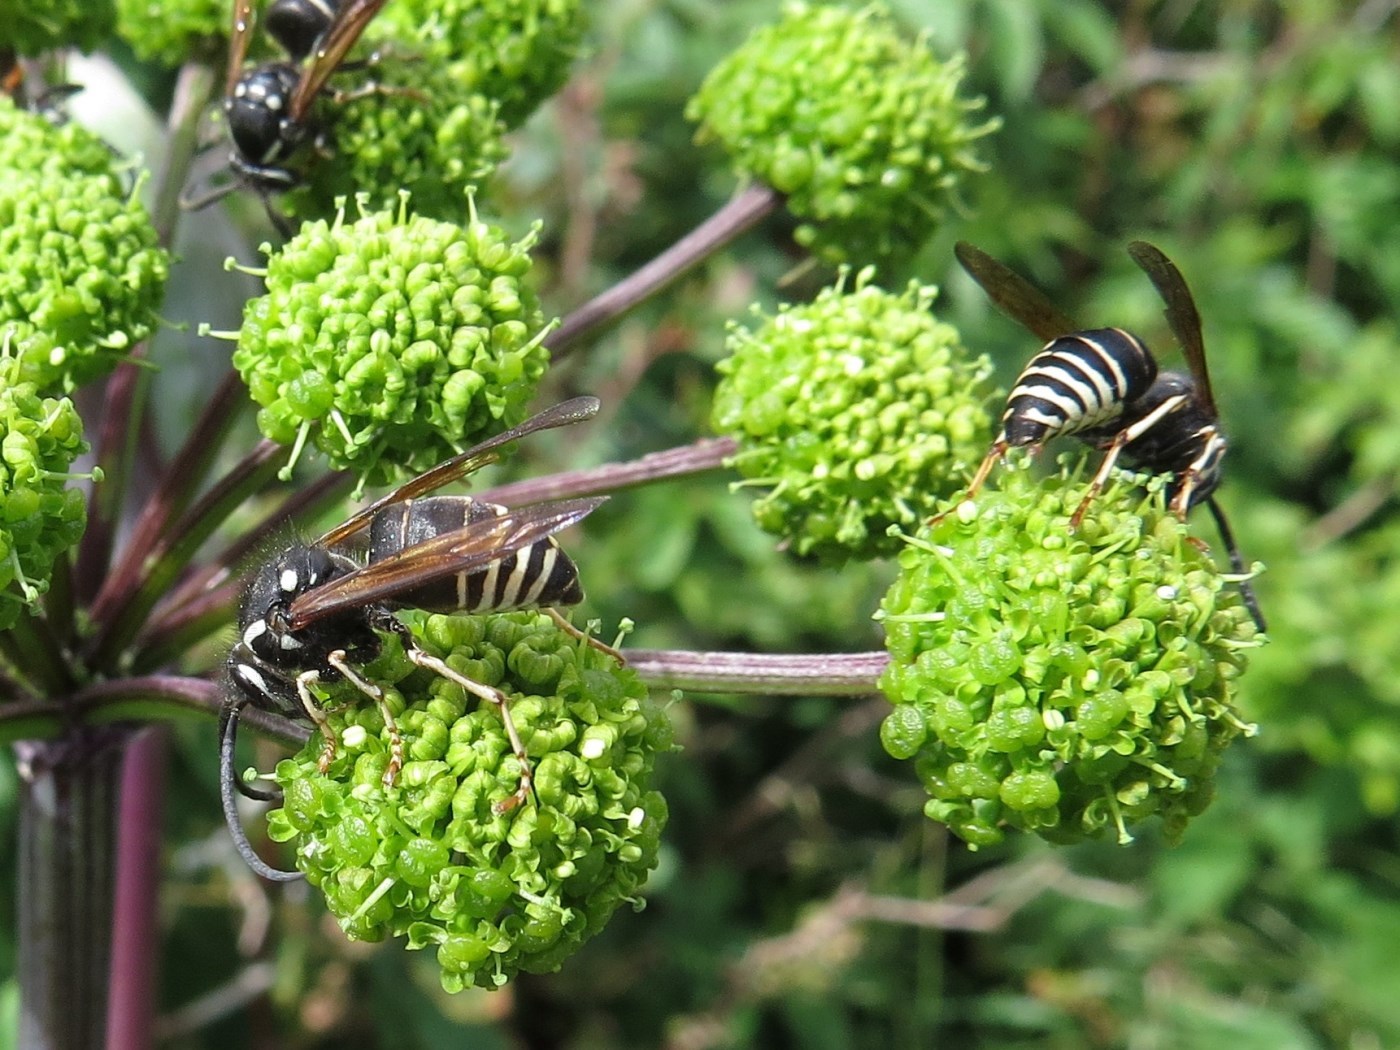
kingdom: Animalia
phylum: Arthropoda
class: Insecta
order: Hymenoptera
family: Vespidae
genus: Dolichovespula
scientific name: Dolichovespula adulterina
